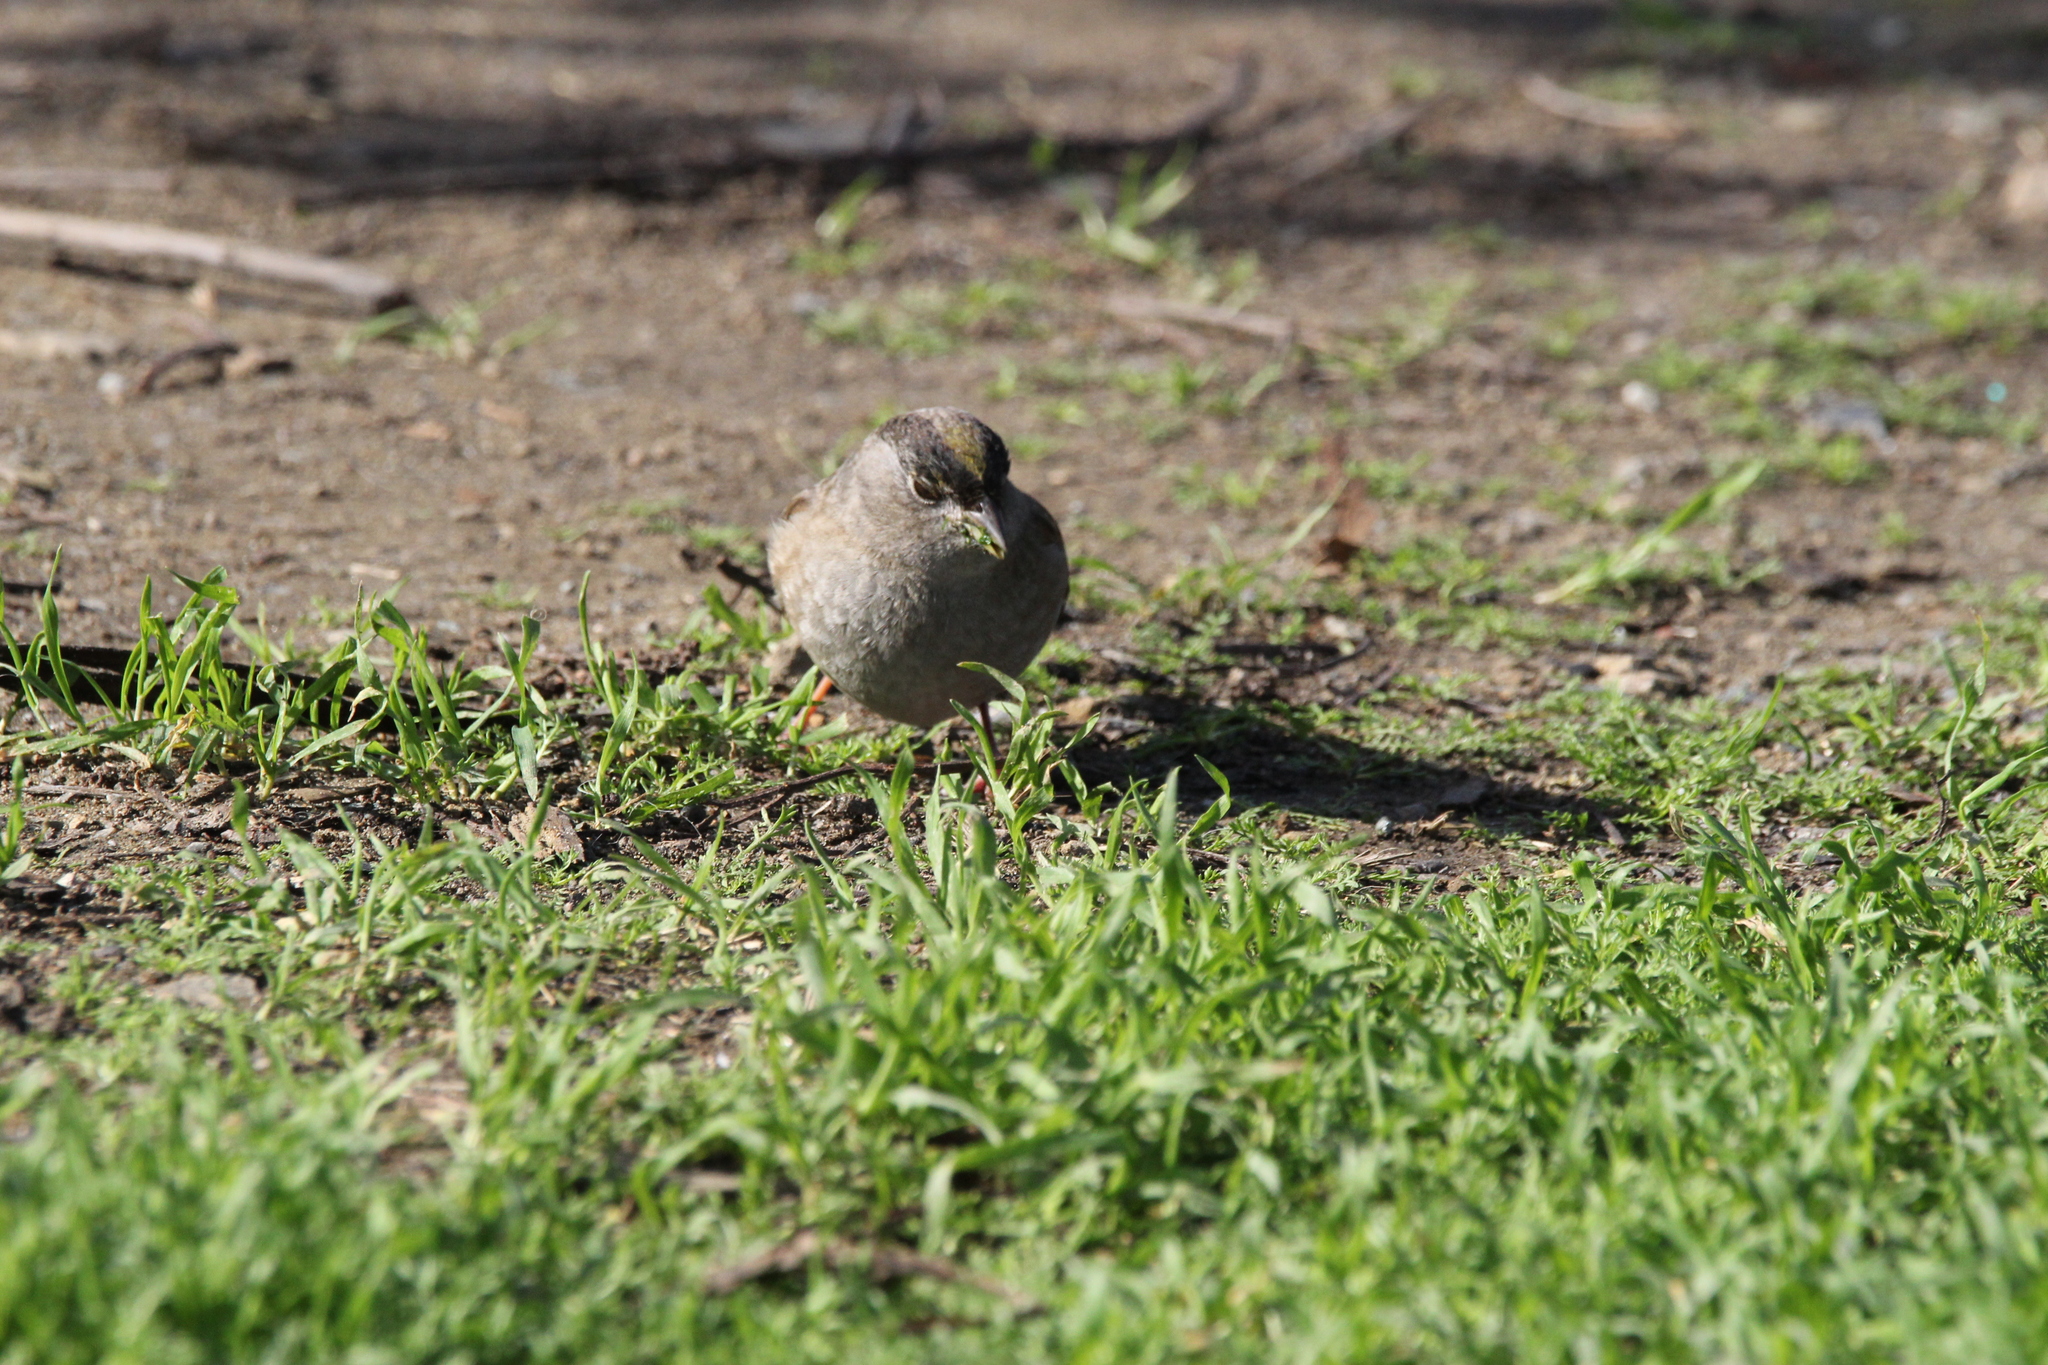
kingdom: Animalia
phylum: Chordata
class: Aves
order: Passeriformes
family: Passerellidae
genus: Zonotrichia
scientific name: Zonotrichia atricapilla
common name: Golden-crowned sparrow
